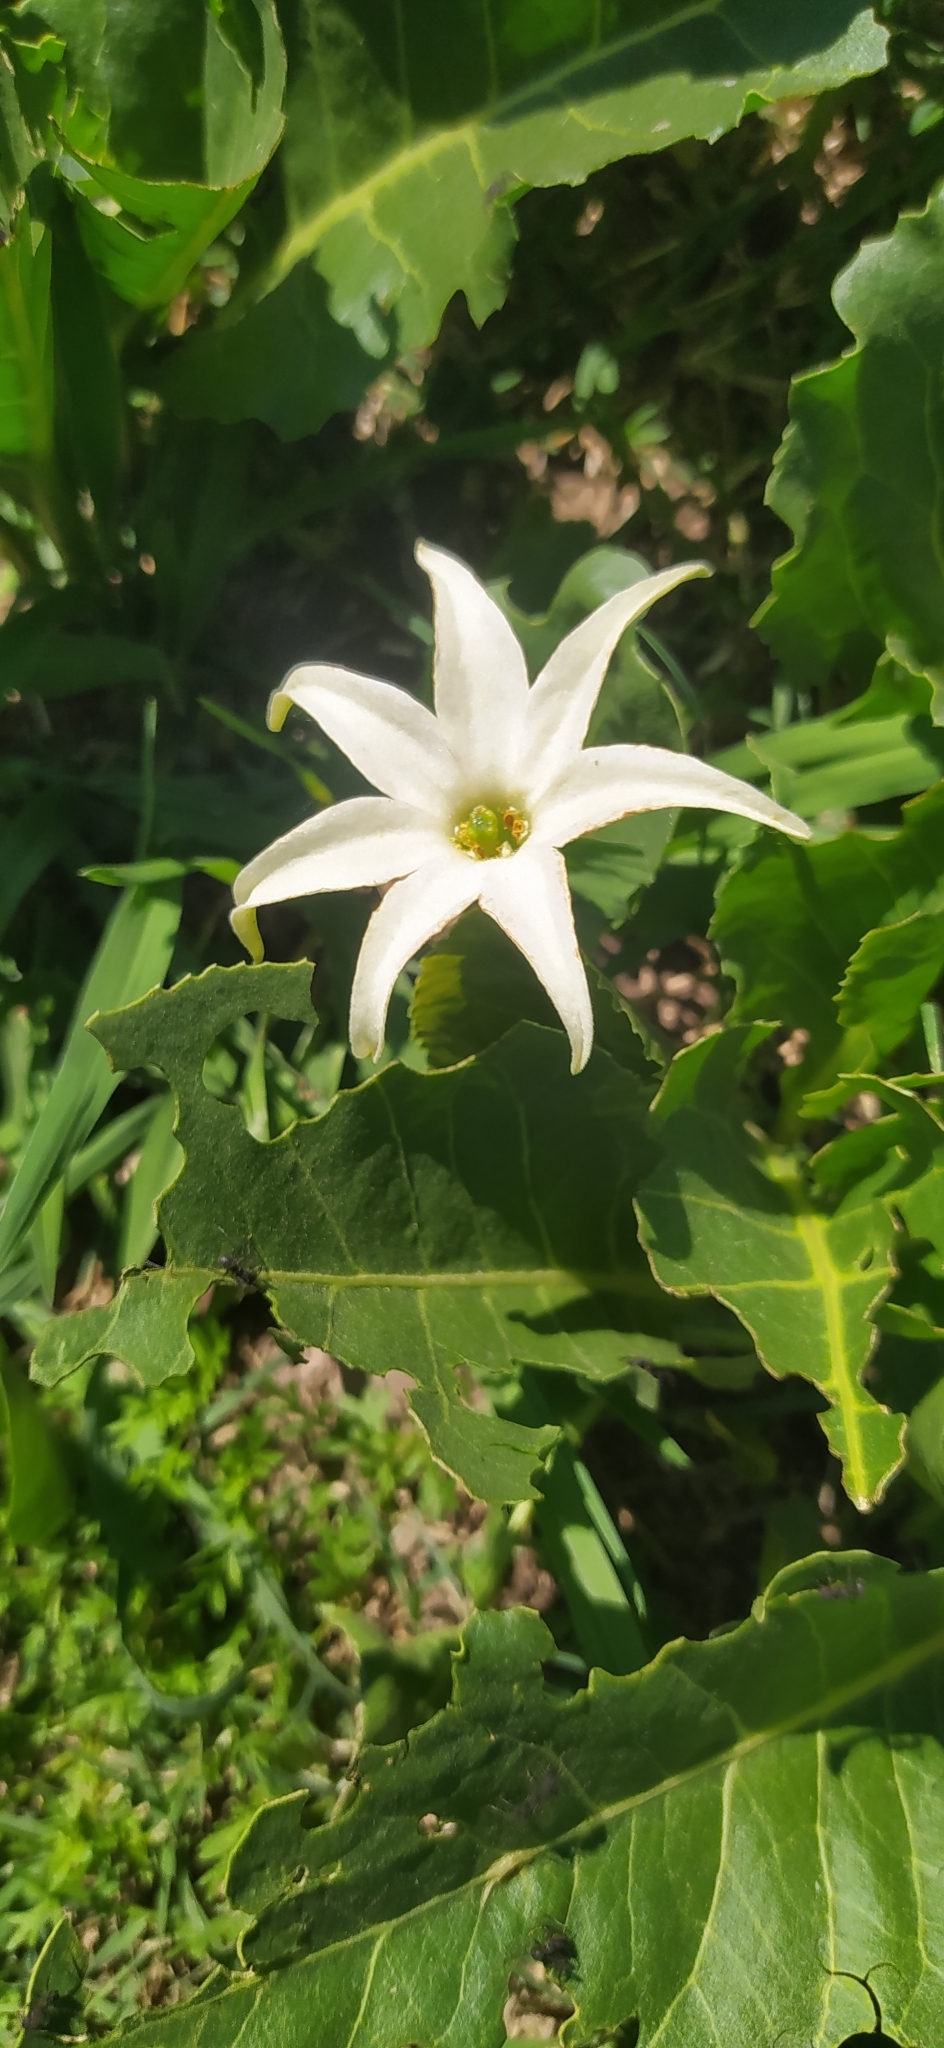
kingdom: Plantae
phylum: Tracheophyta
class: Magnoliopsida
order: Solanales
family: Solanaceae
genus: Jaborosa
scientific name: Jaborosa integrifolia
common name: Springblossom
